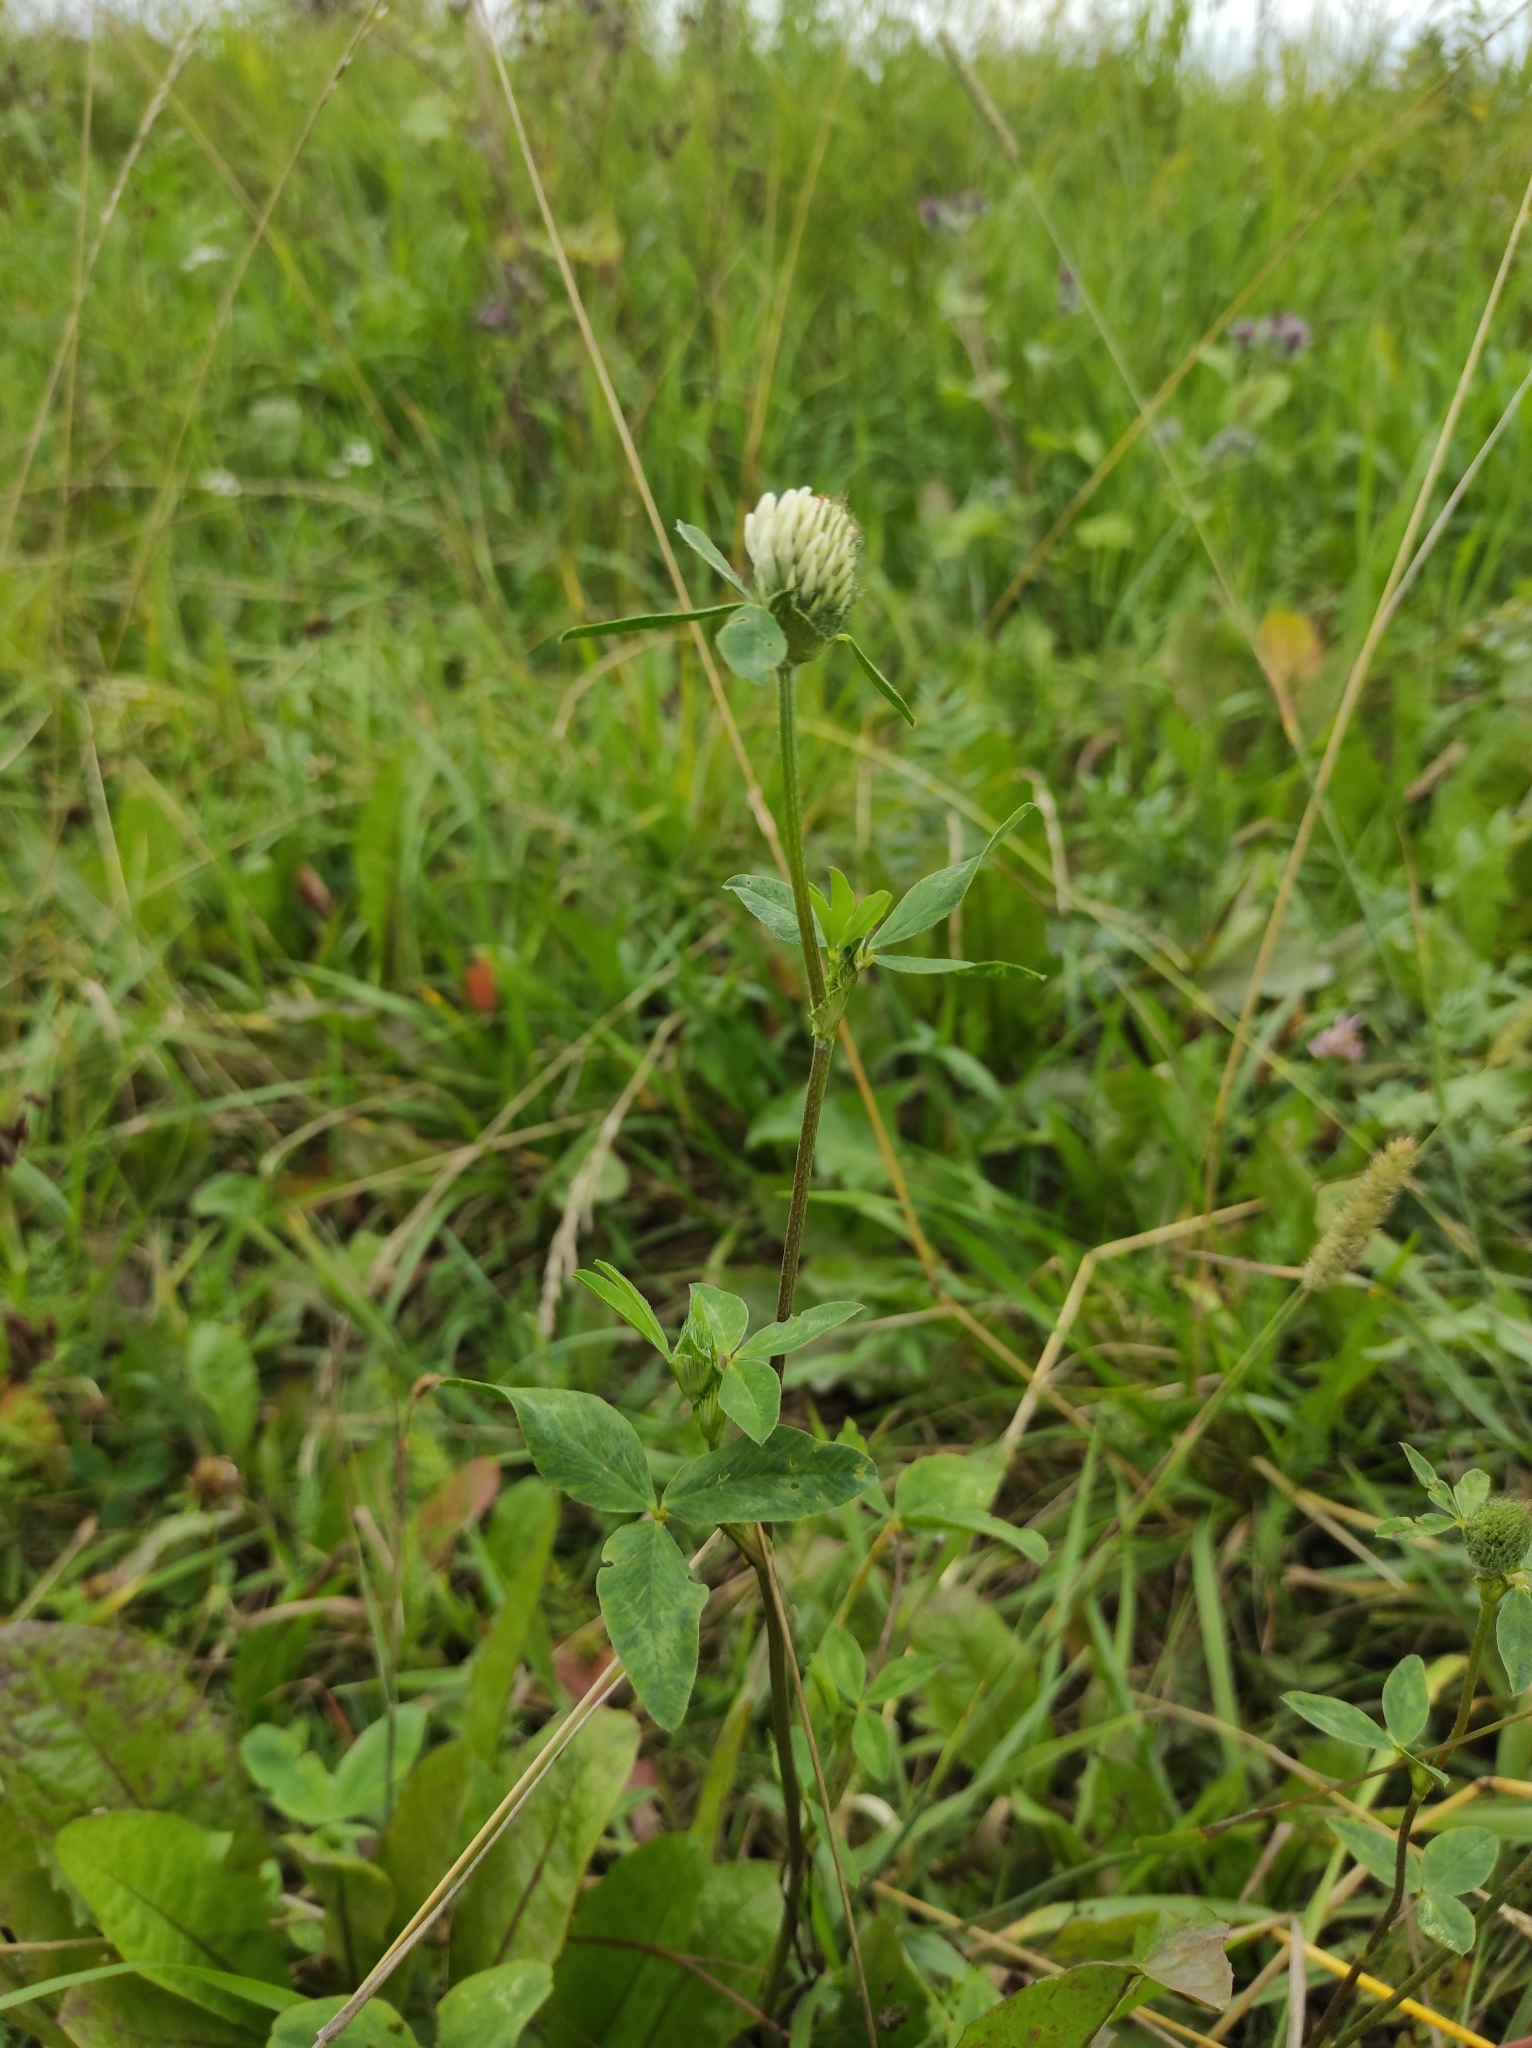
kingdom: Plantae
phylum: Tracheophyta
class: Magnoliopsida
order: Fabales
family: Fabaceae
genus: Trifolium
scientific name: Trifolium pratense
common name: Red clover
